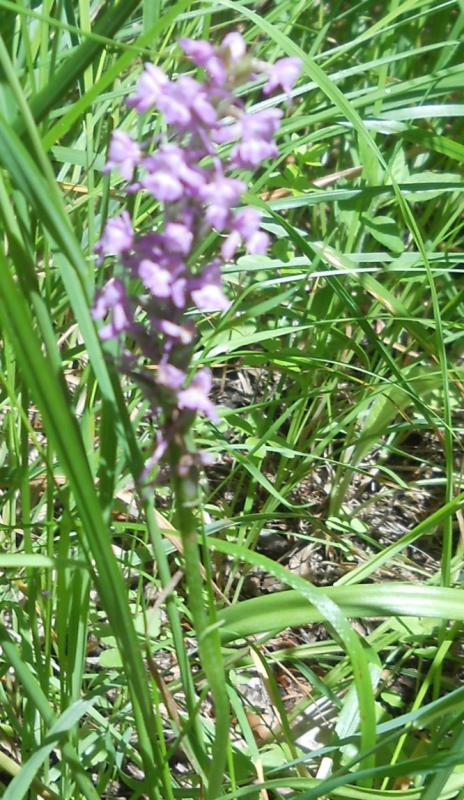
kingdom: Plantae
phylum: Tracheophyta
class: Liliopsida
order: Asparagales
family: Orchidaceae
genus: Gymnadenia
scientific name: Gymnadenia conopsea
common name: Fragrant orchid
